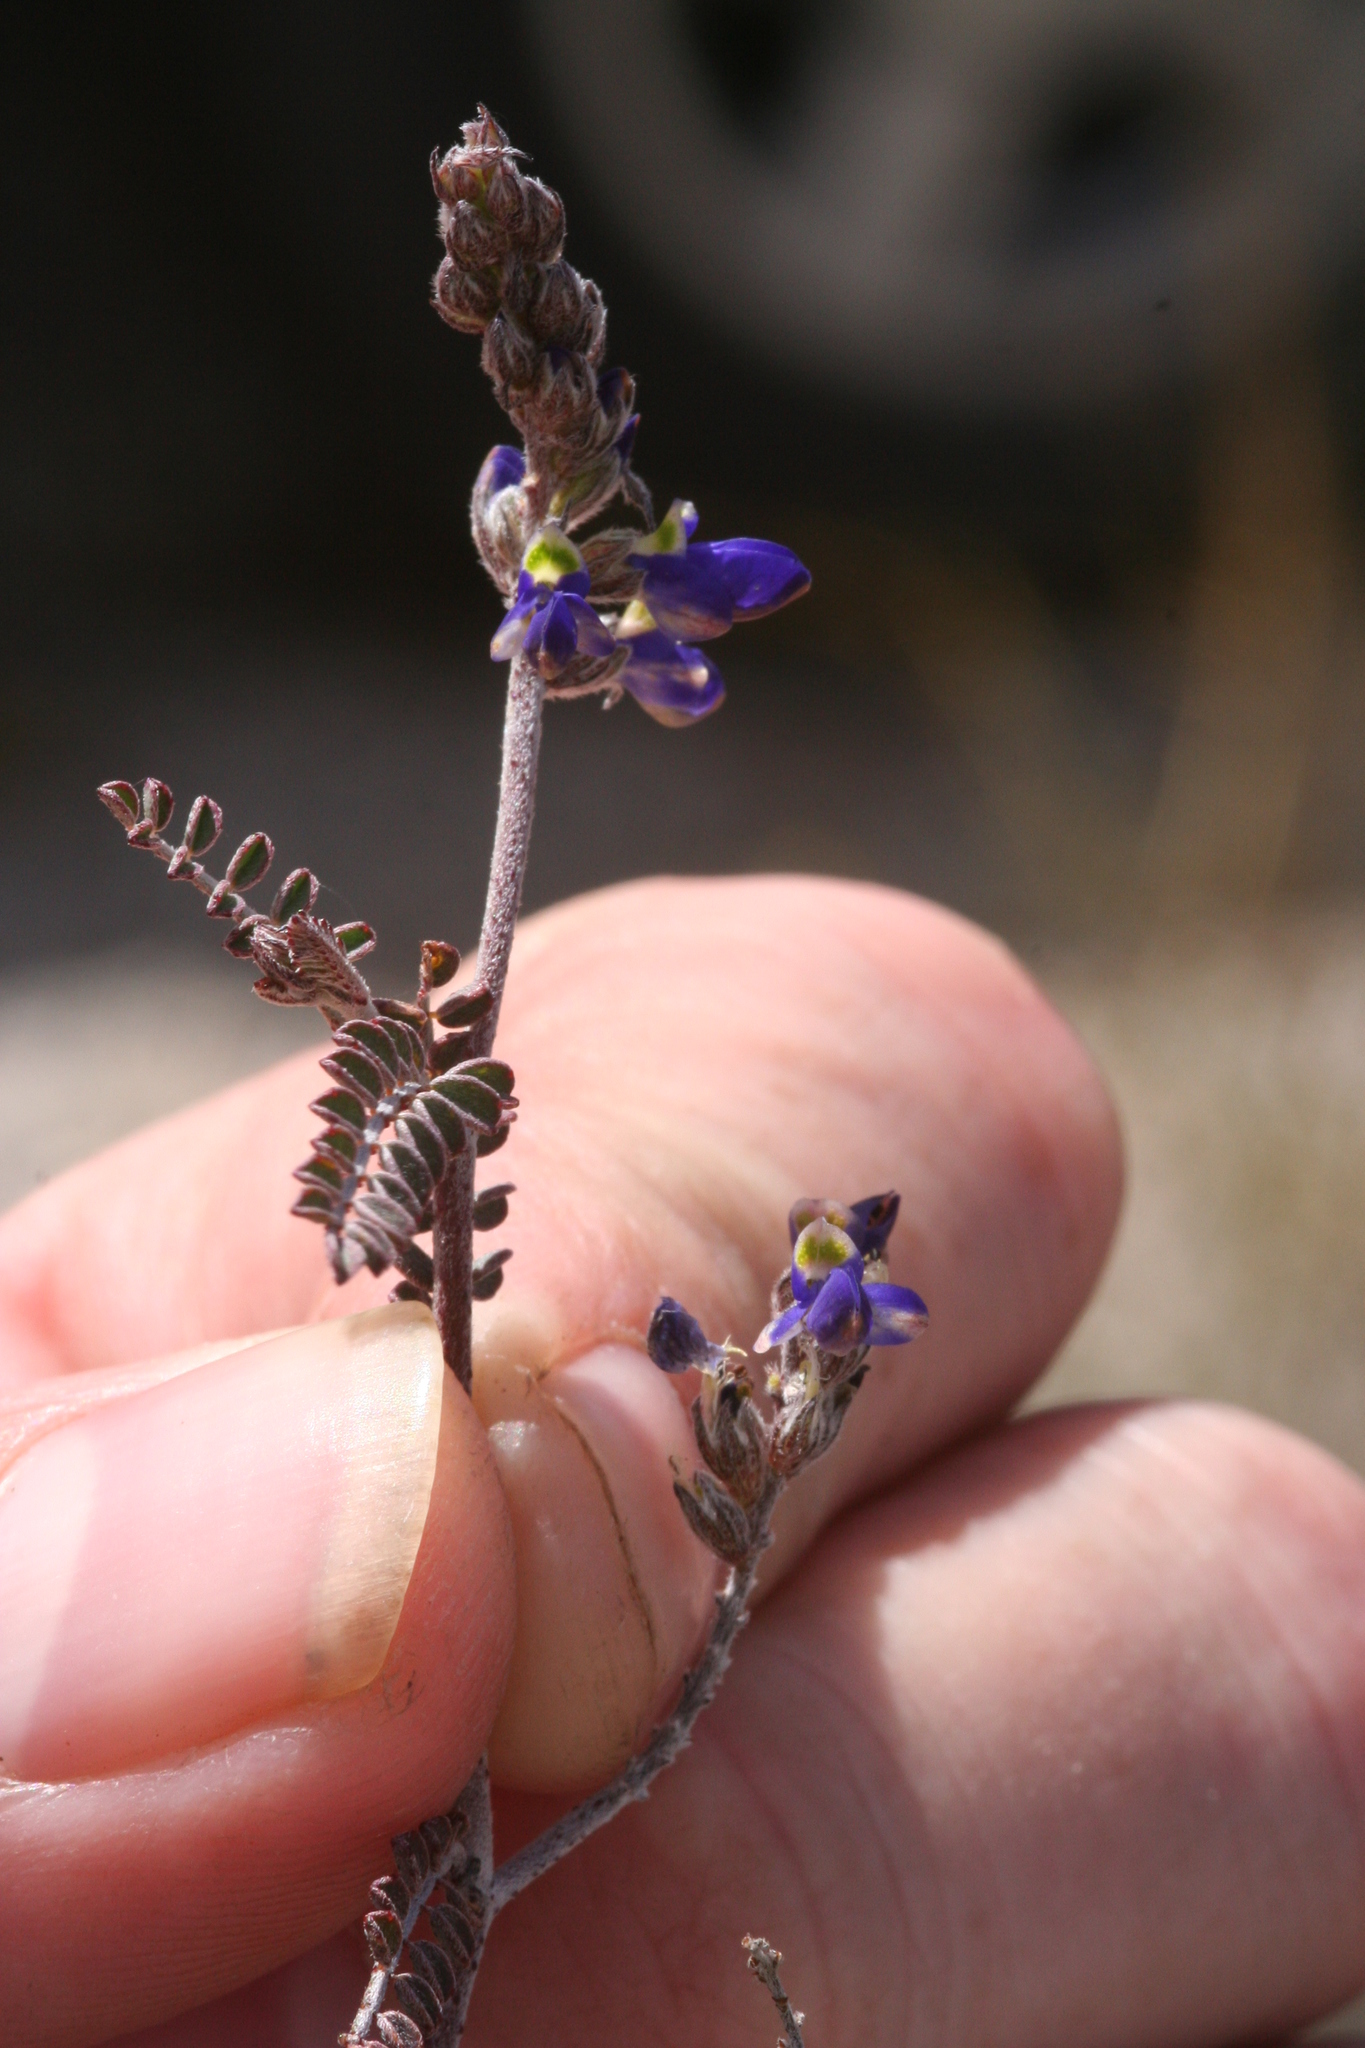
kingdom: Plantae
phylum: Tracheophyta
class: Magnoliopsida
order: Fabales
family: Fabaceae
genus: Marina
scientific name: Marina parryi
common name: Parry's marina
